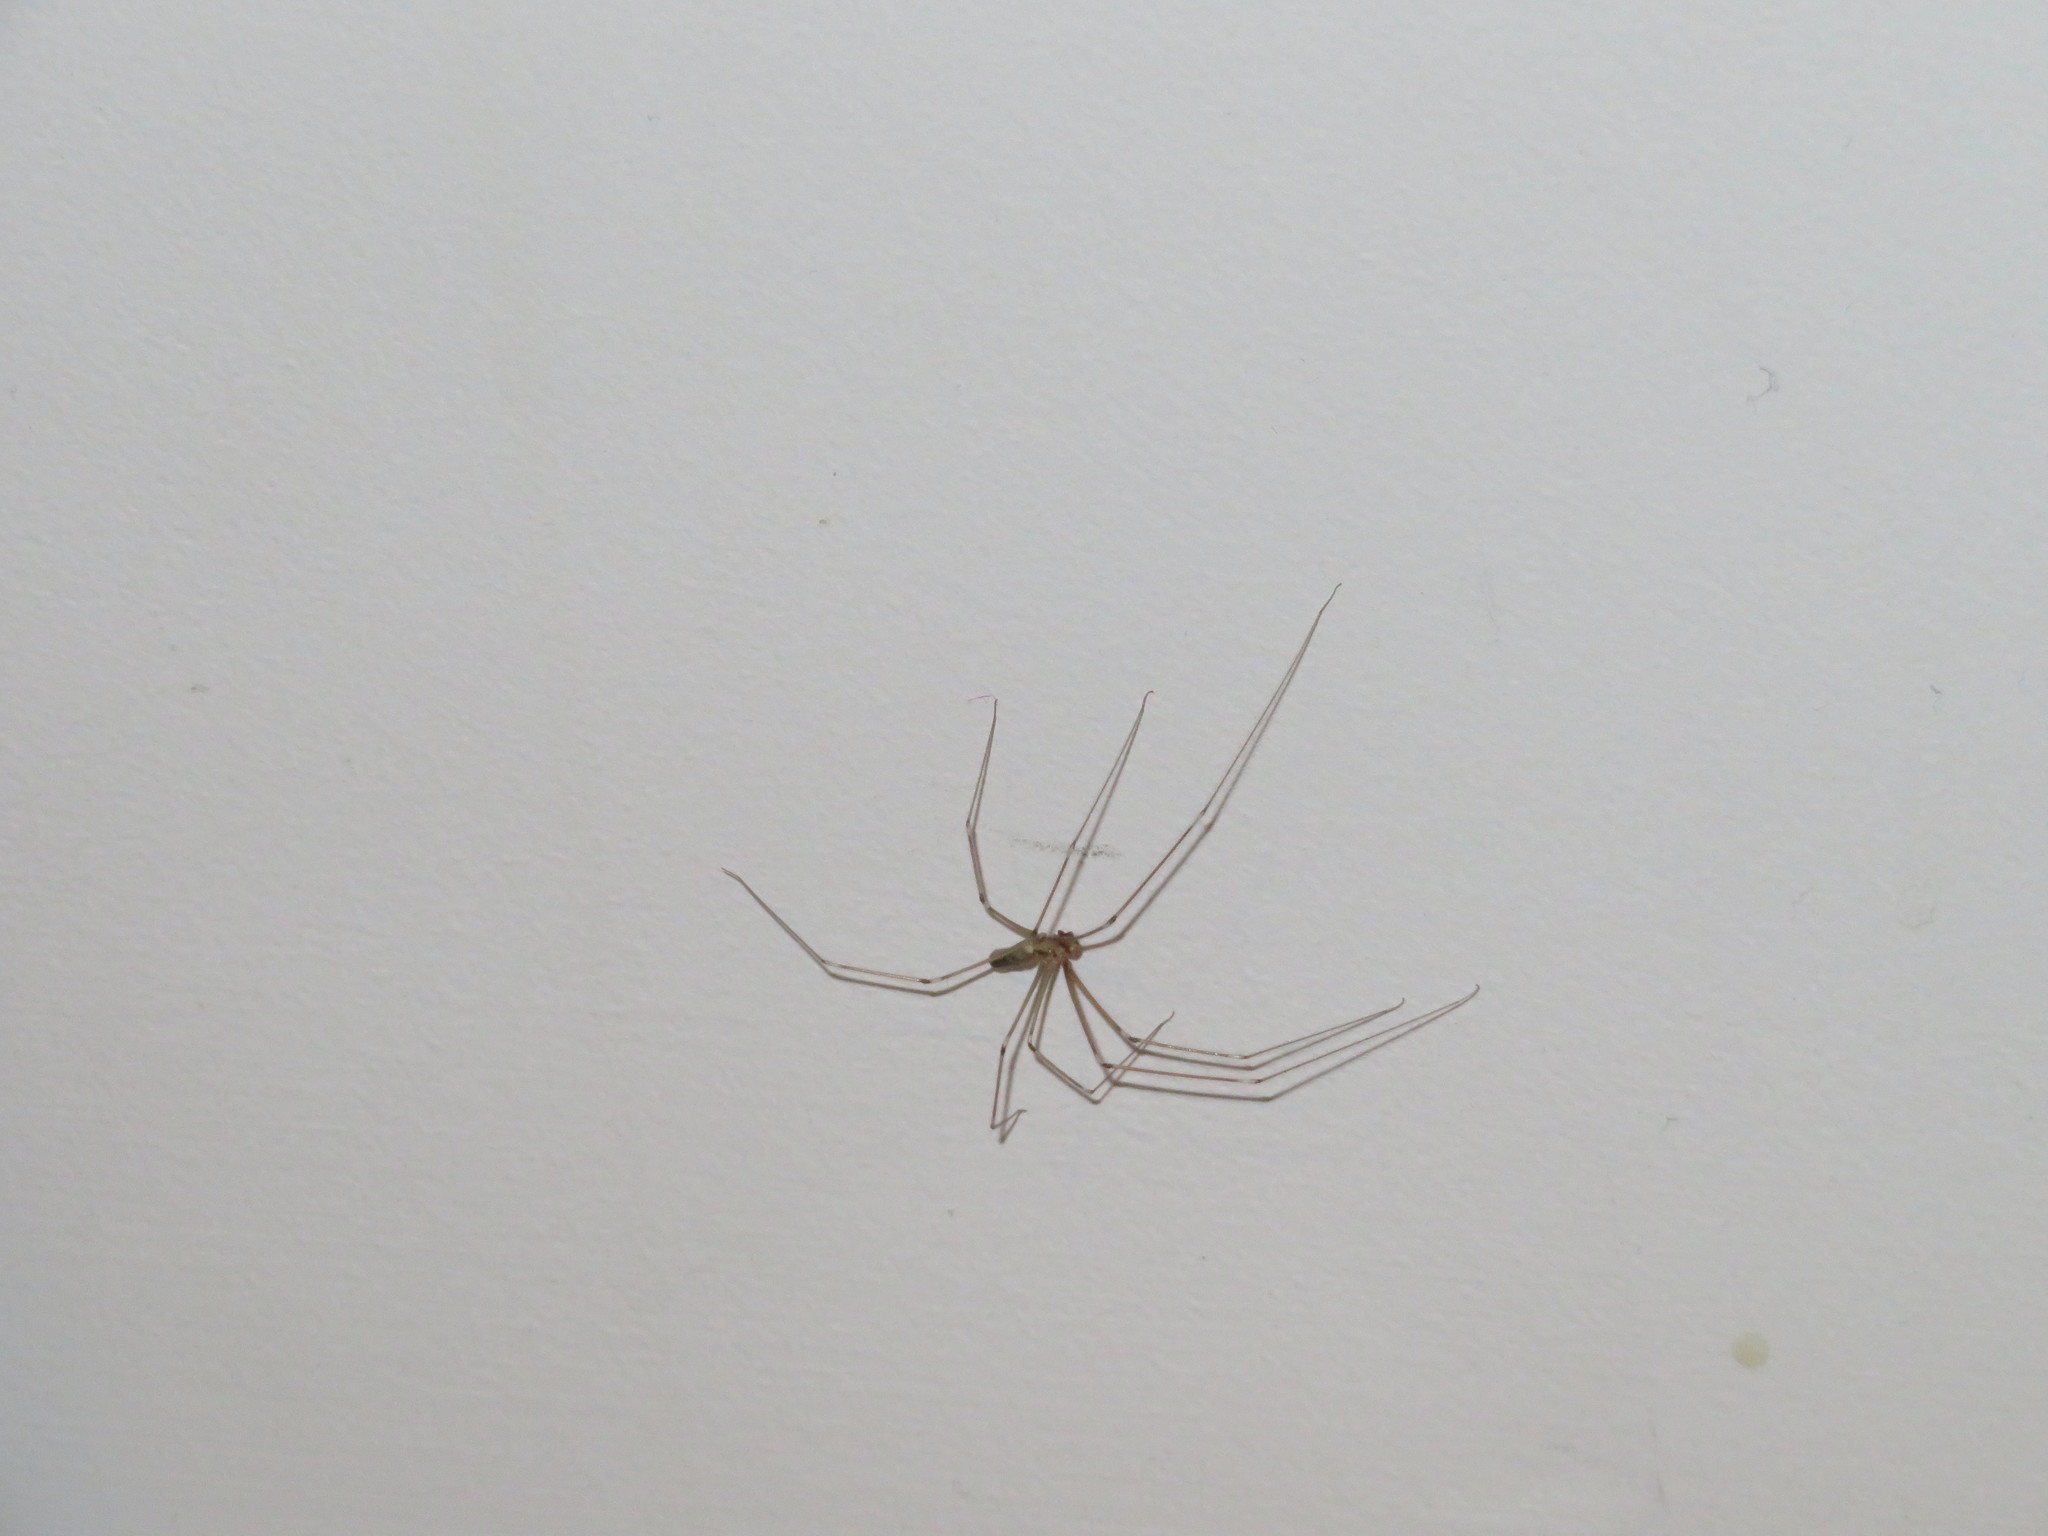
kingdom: Animalia
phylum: Arthropoda
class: Arachnida
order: Araneae
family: Pholcidae
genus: Pholcus
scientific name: Pholcus phalangioides
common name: Longbodied cellar spider
